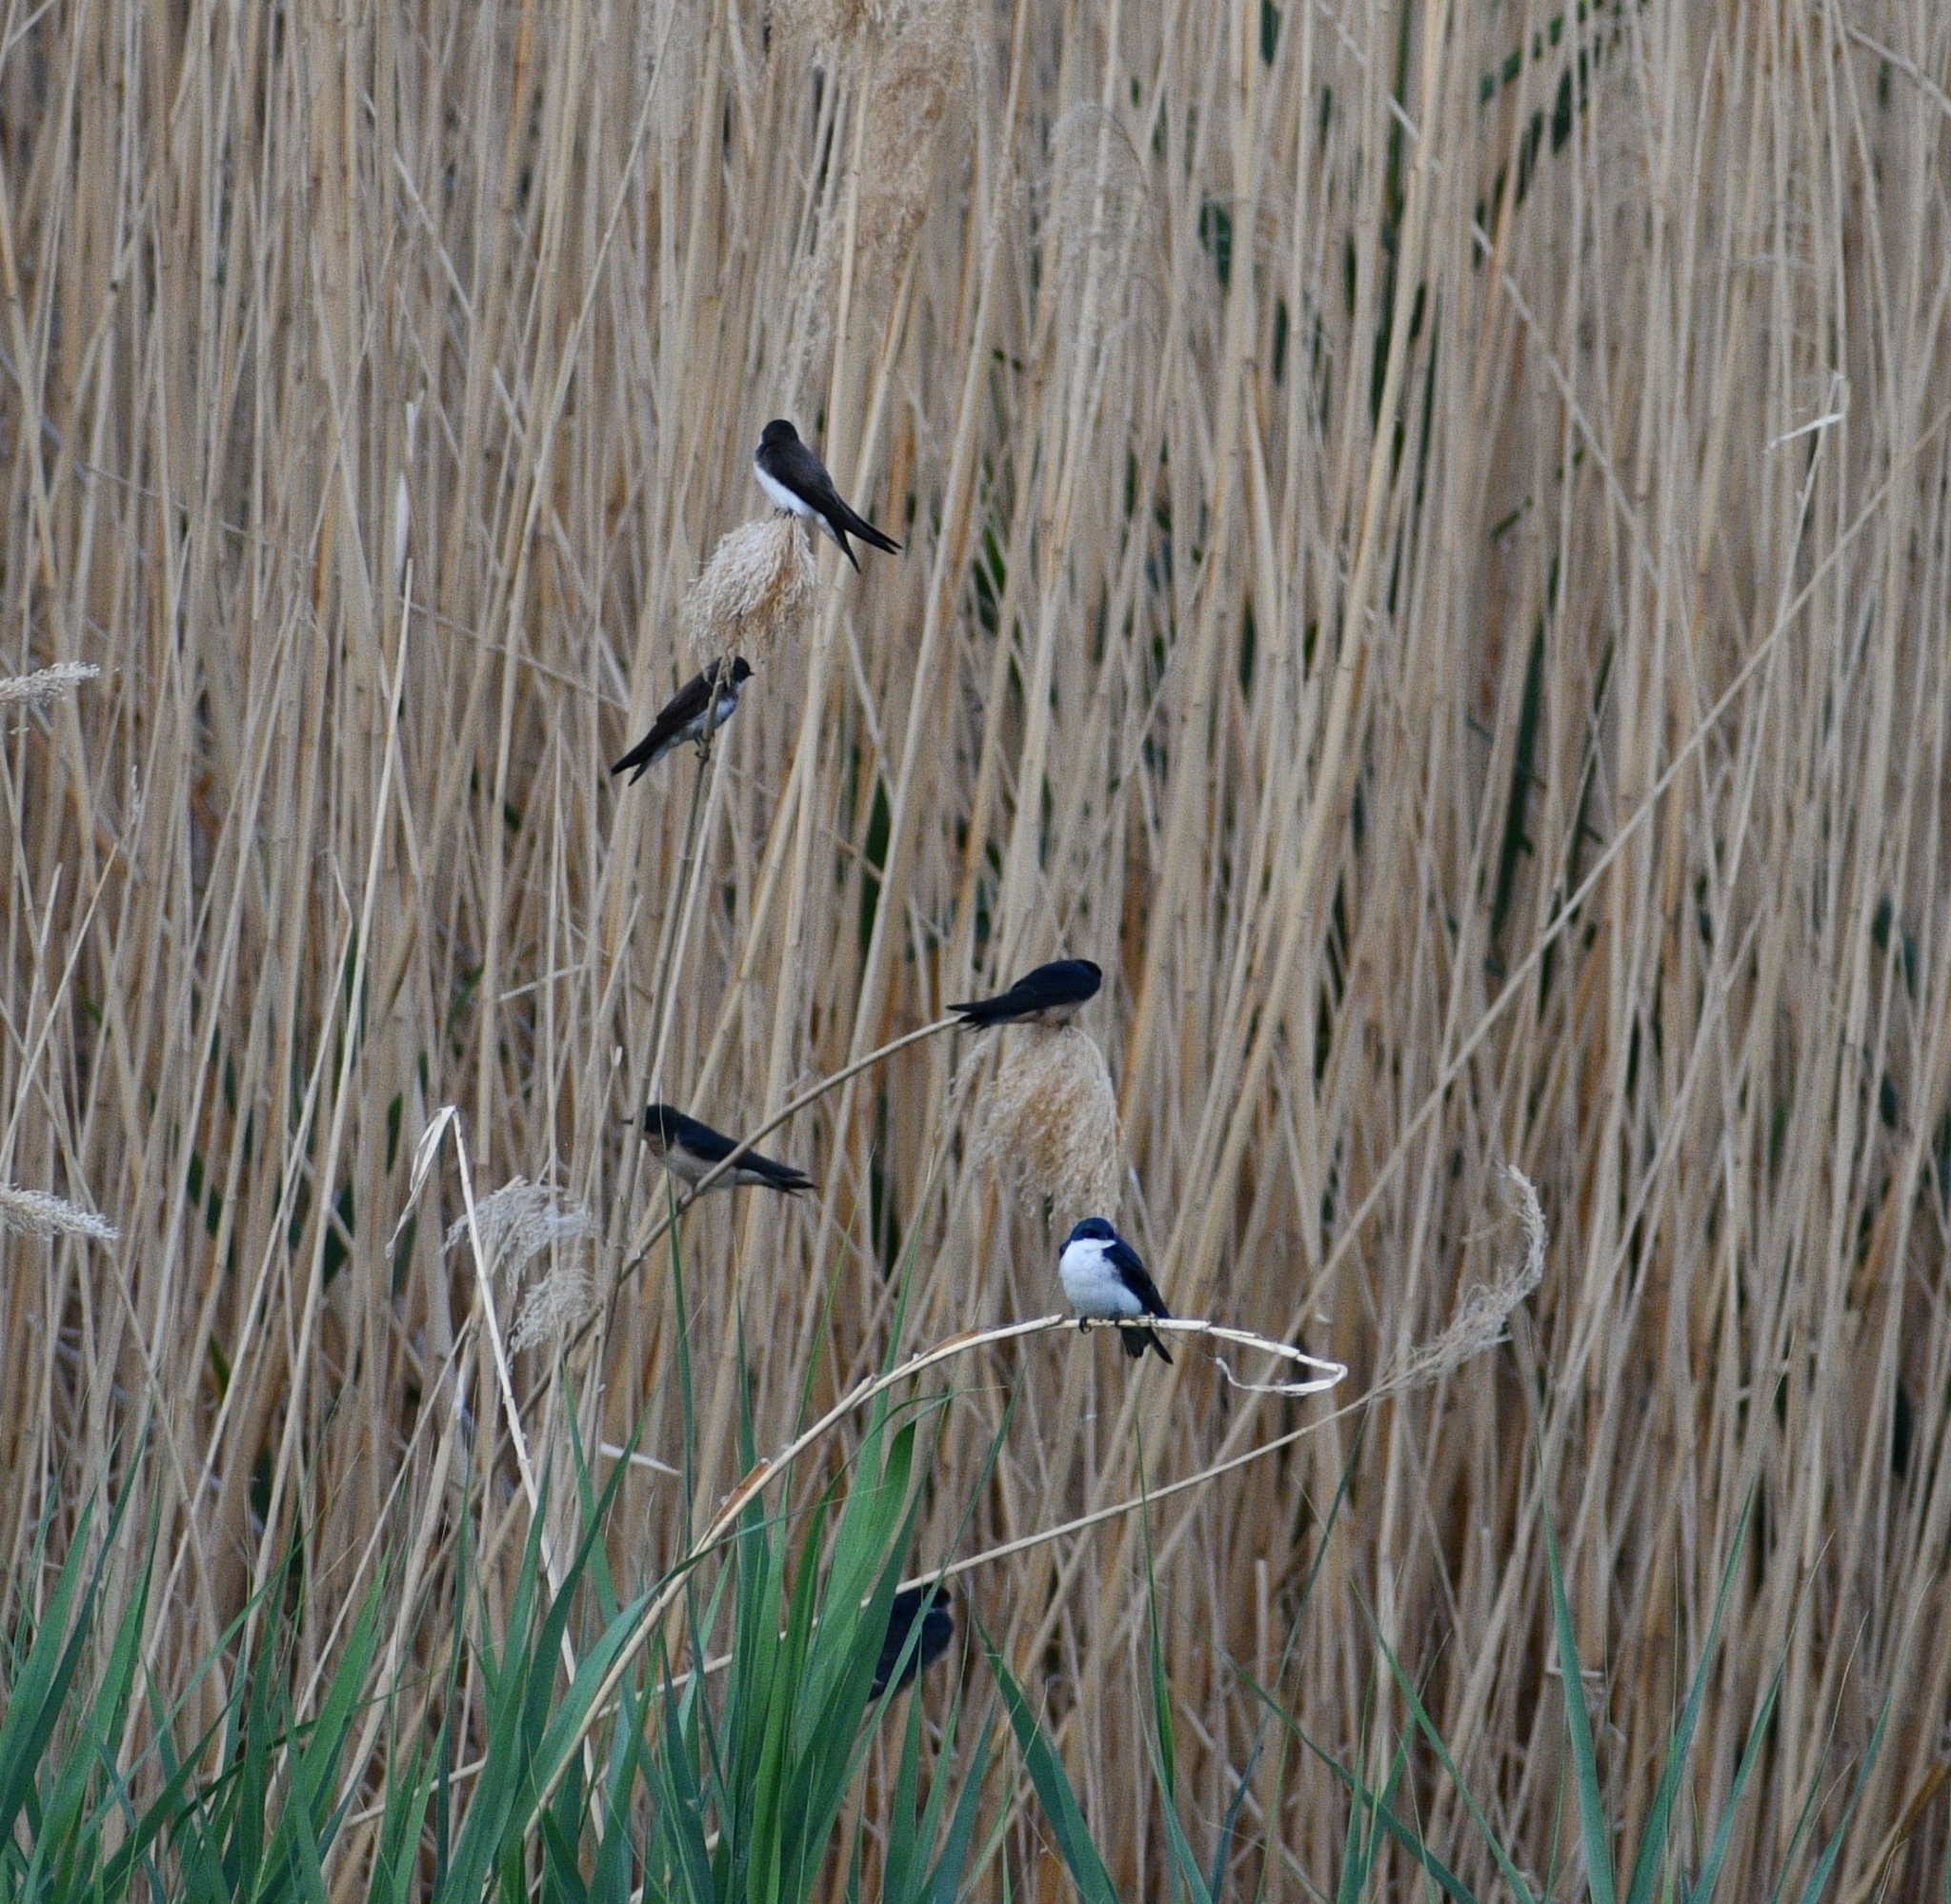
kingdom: Animalia
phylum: Chordata
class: Aves
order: Passeriformes
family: Hirundinidae
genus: Tachycineta
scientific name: Tachycineta bicolor
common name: Tree swallow
